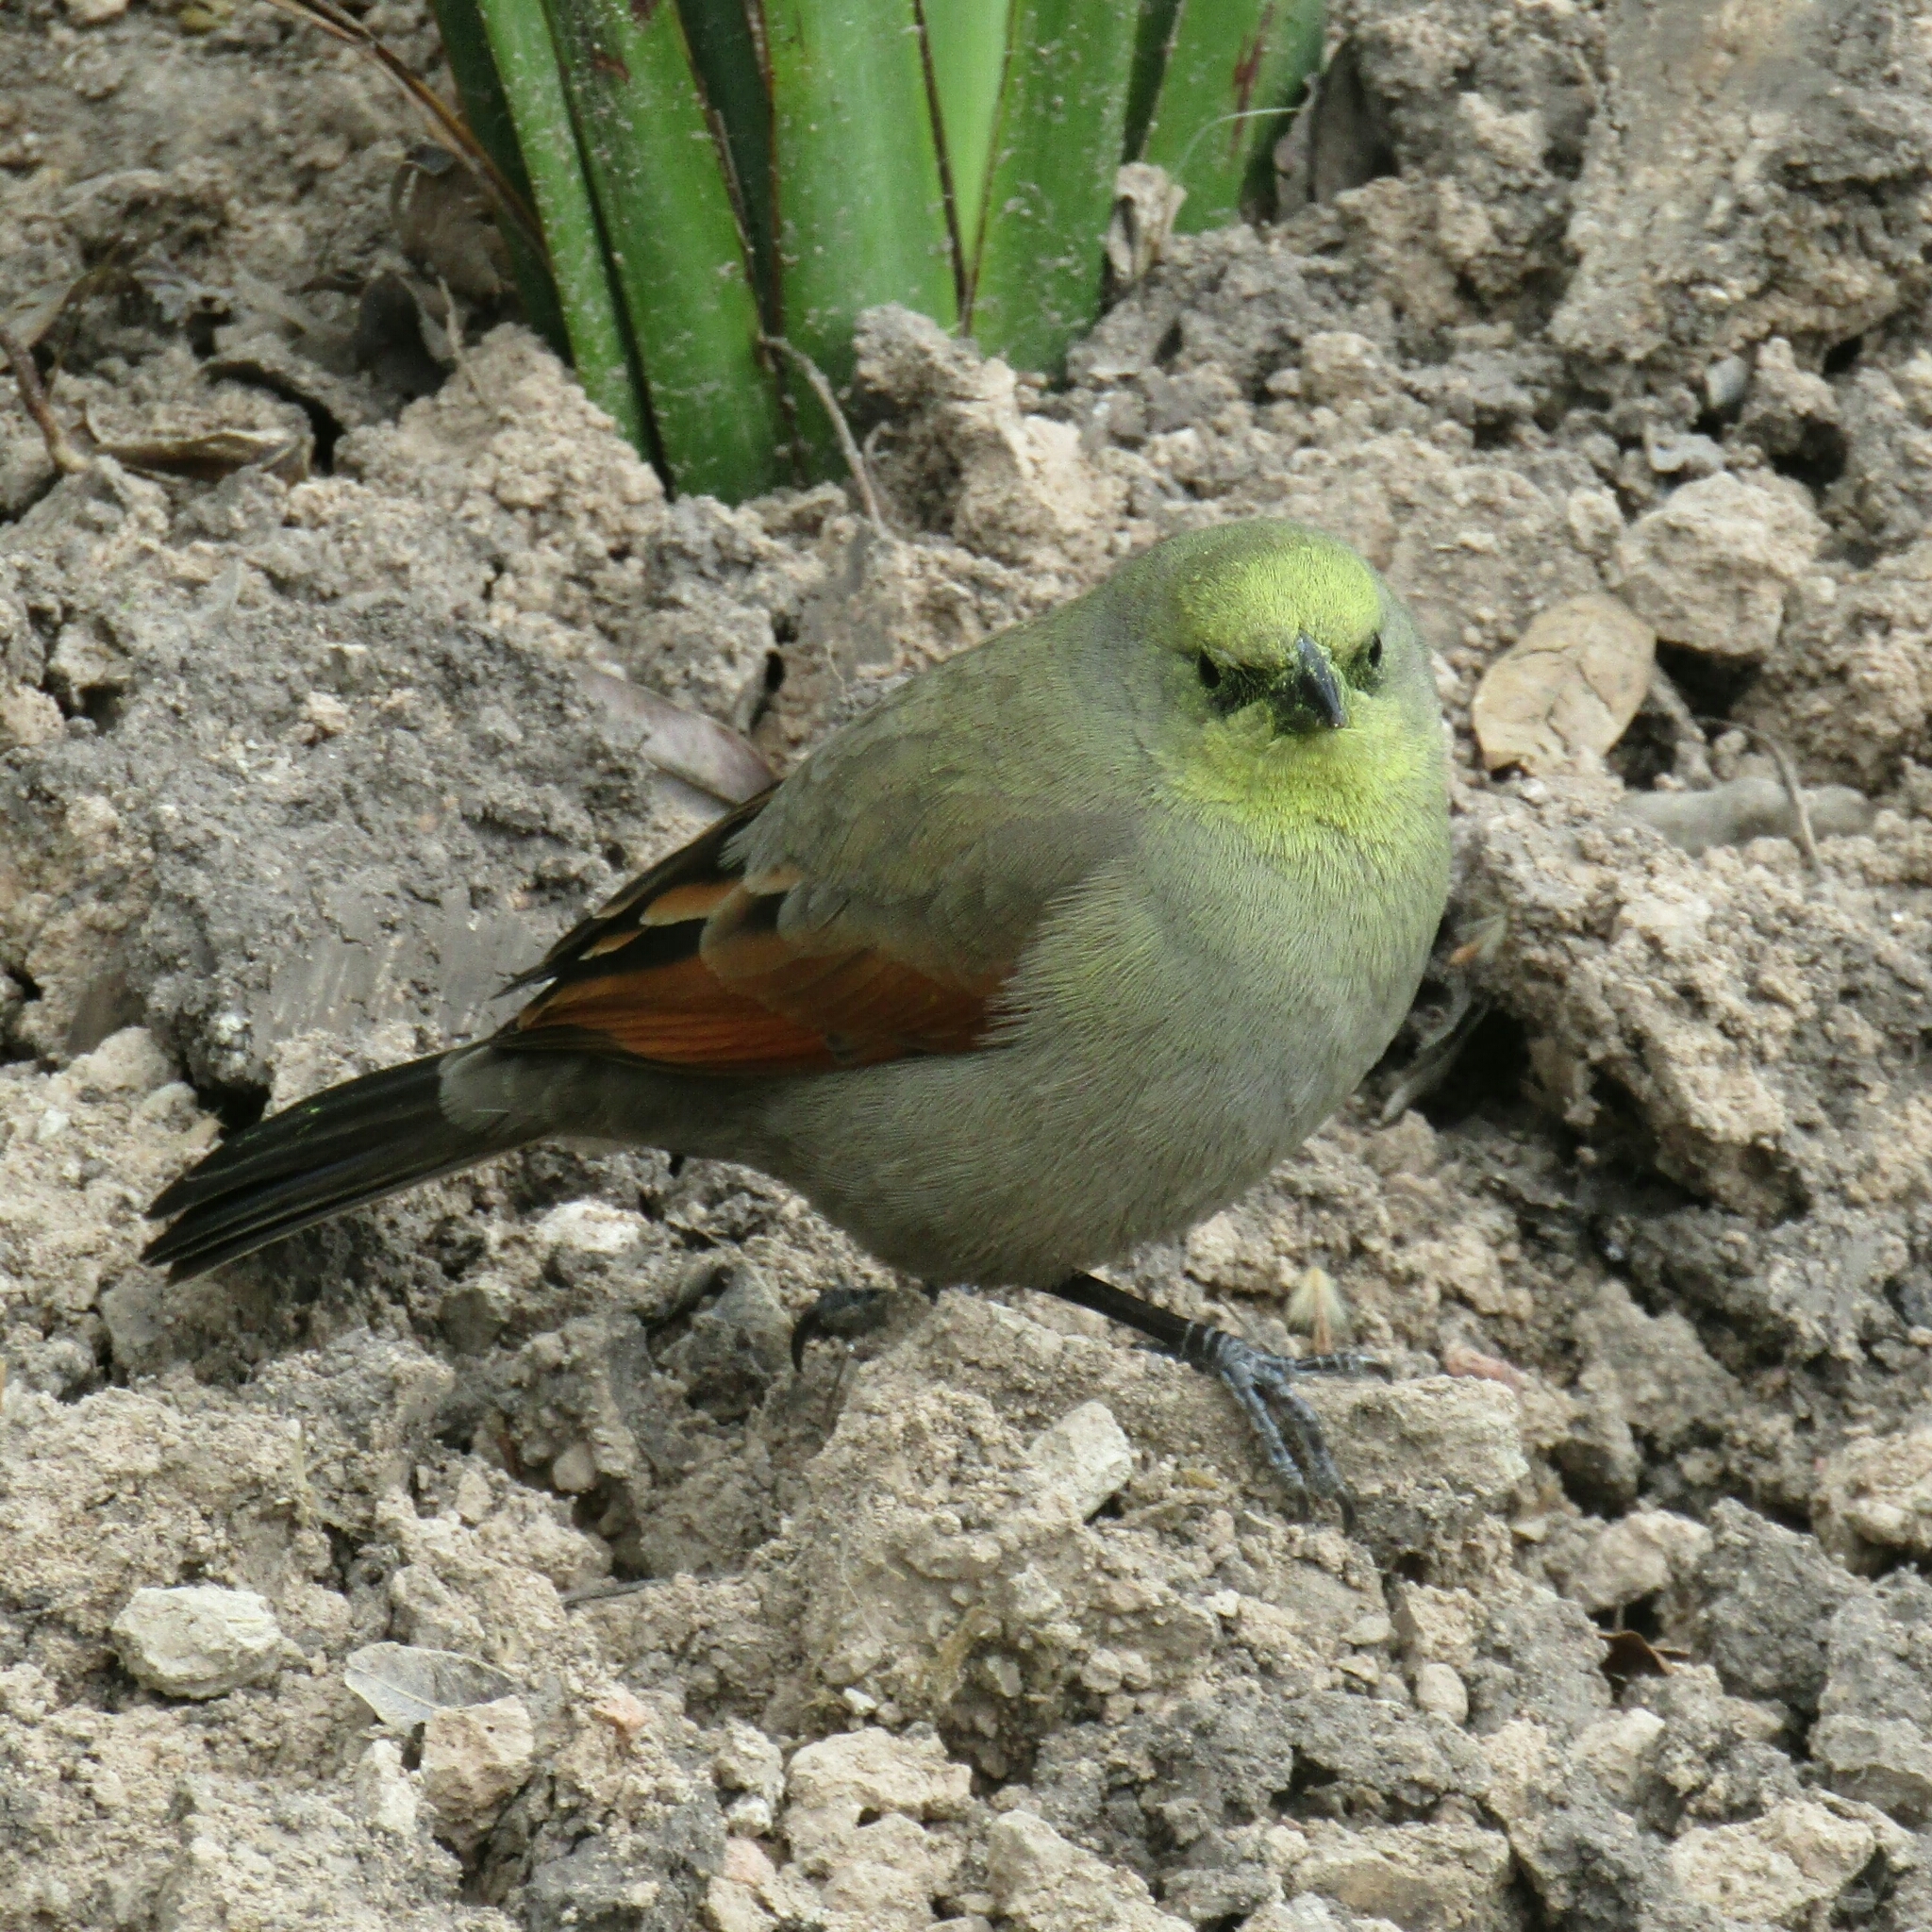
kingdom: Animalia
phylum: Chordata
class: Aves
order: Passeriformes
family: Icteridae
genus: Agelaioides
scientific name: Agelaioides badius
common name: Baywing
